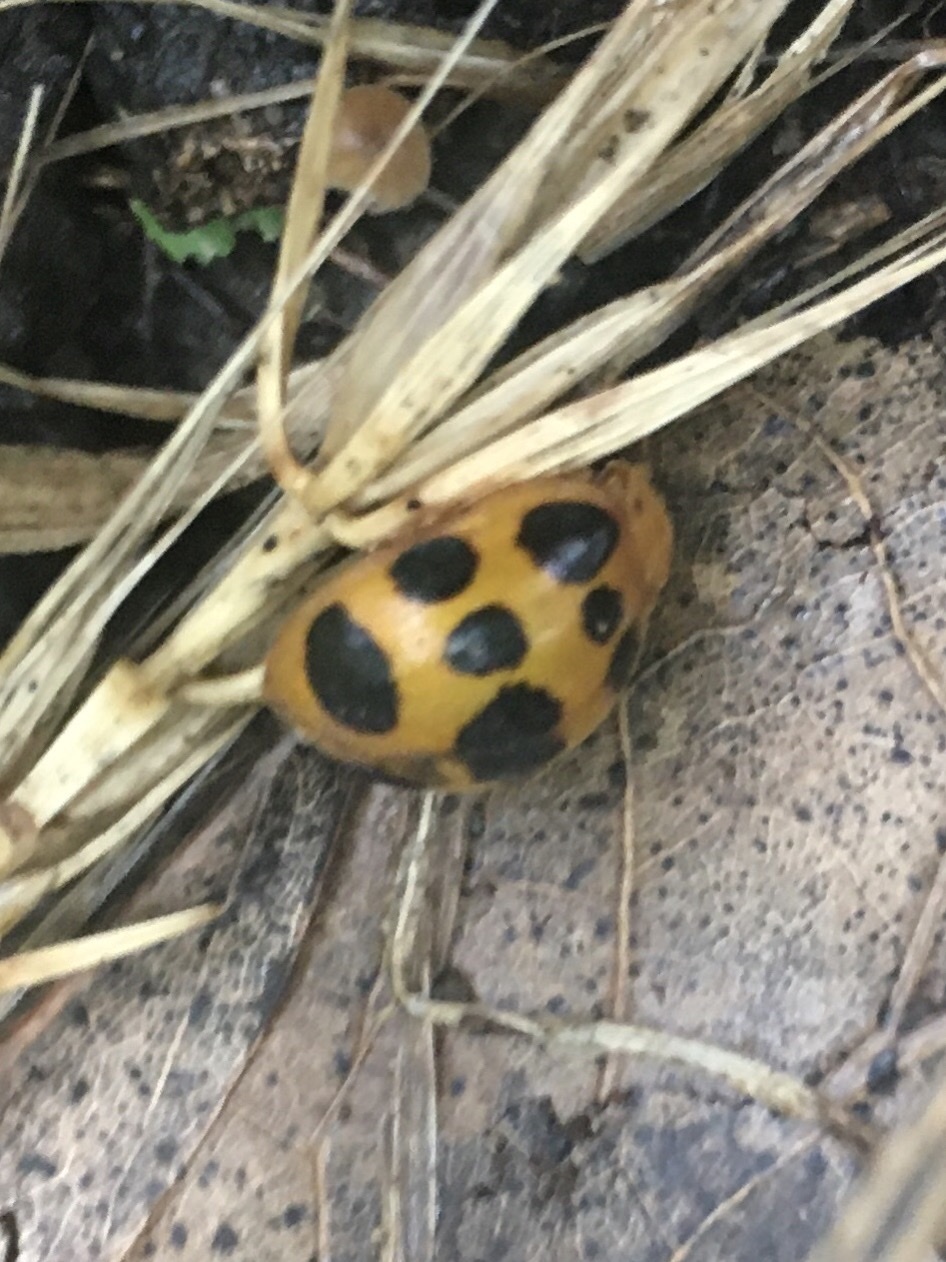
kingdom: Animalia
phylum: Arthropoda
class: Insecta
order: Coleoptera
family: Coccinellidae
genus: Epilachna
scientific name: Epilachna borealis
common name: Squash beetle
